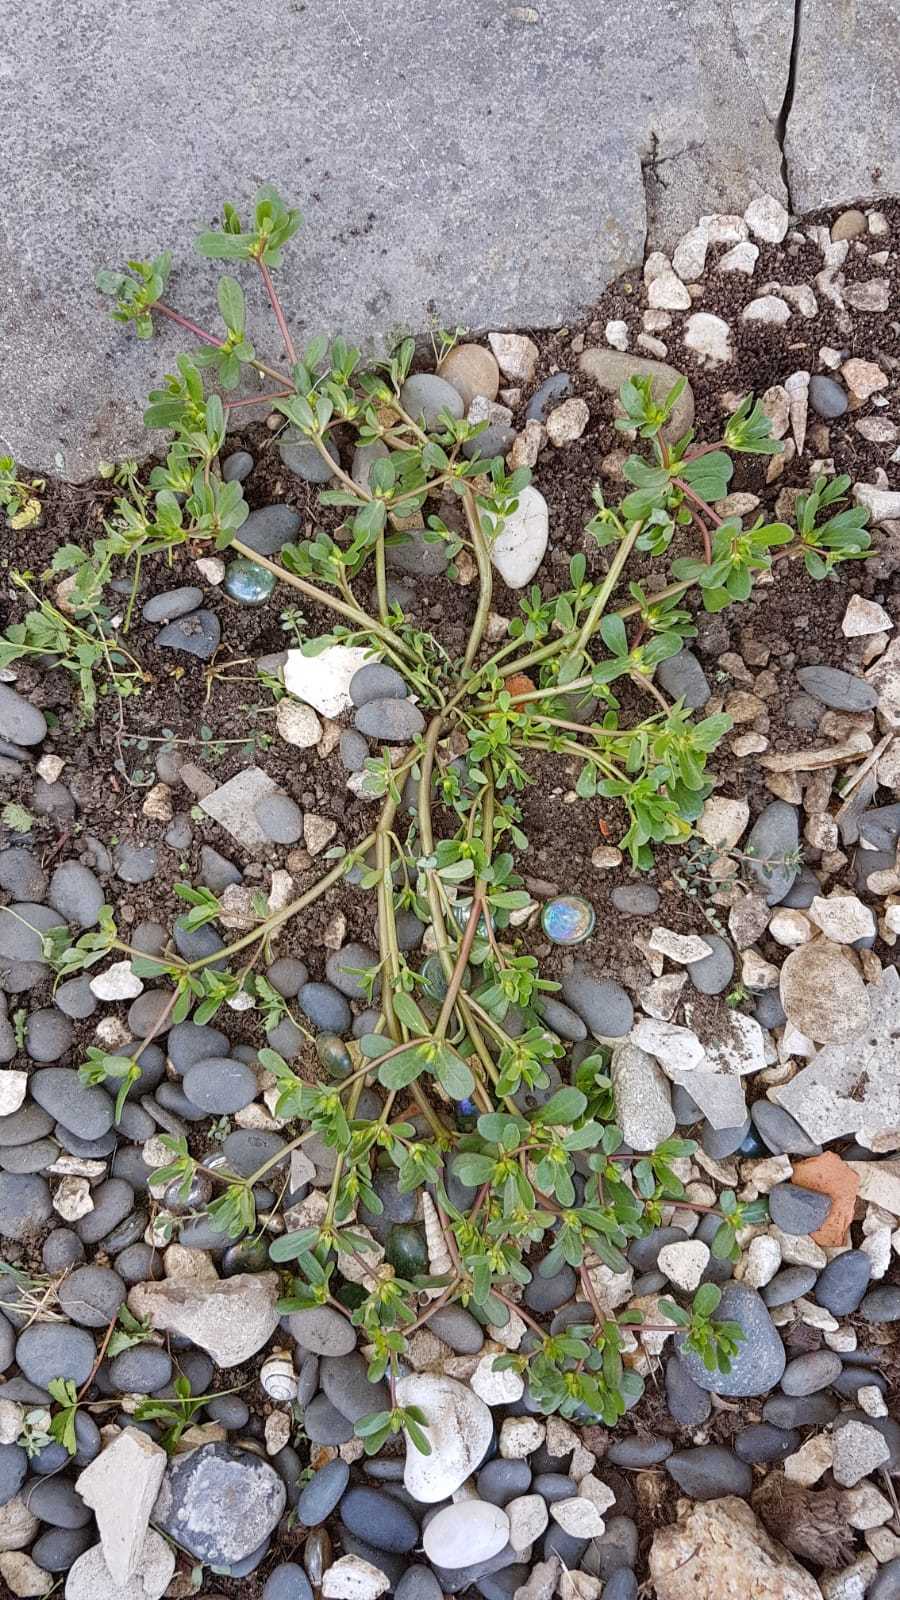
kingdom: Plantae
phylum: Tracheophyta
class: Magnoliopsida
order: Caryophyllales
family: Portulacaceae
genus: Portulaca
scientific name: Portulaca oleracea
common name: Common purslane
